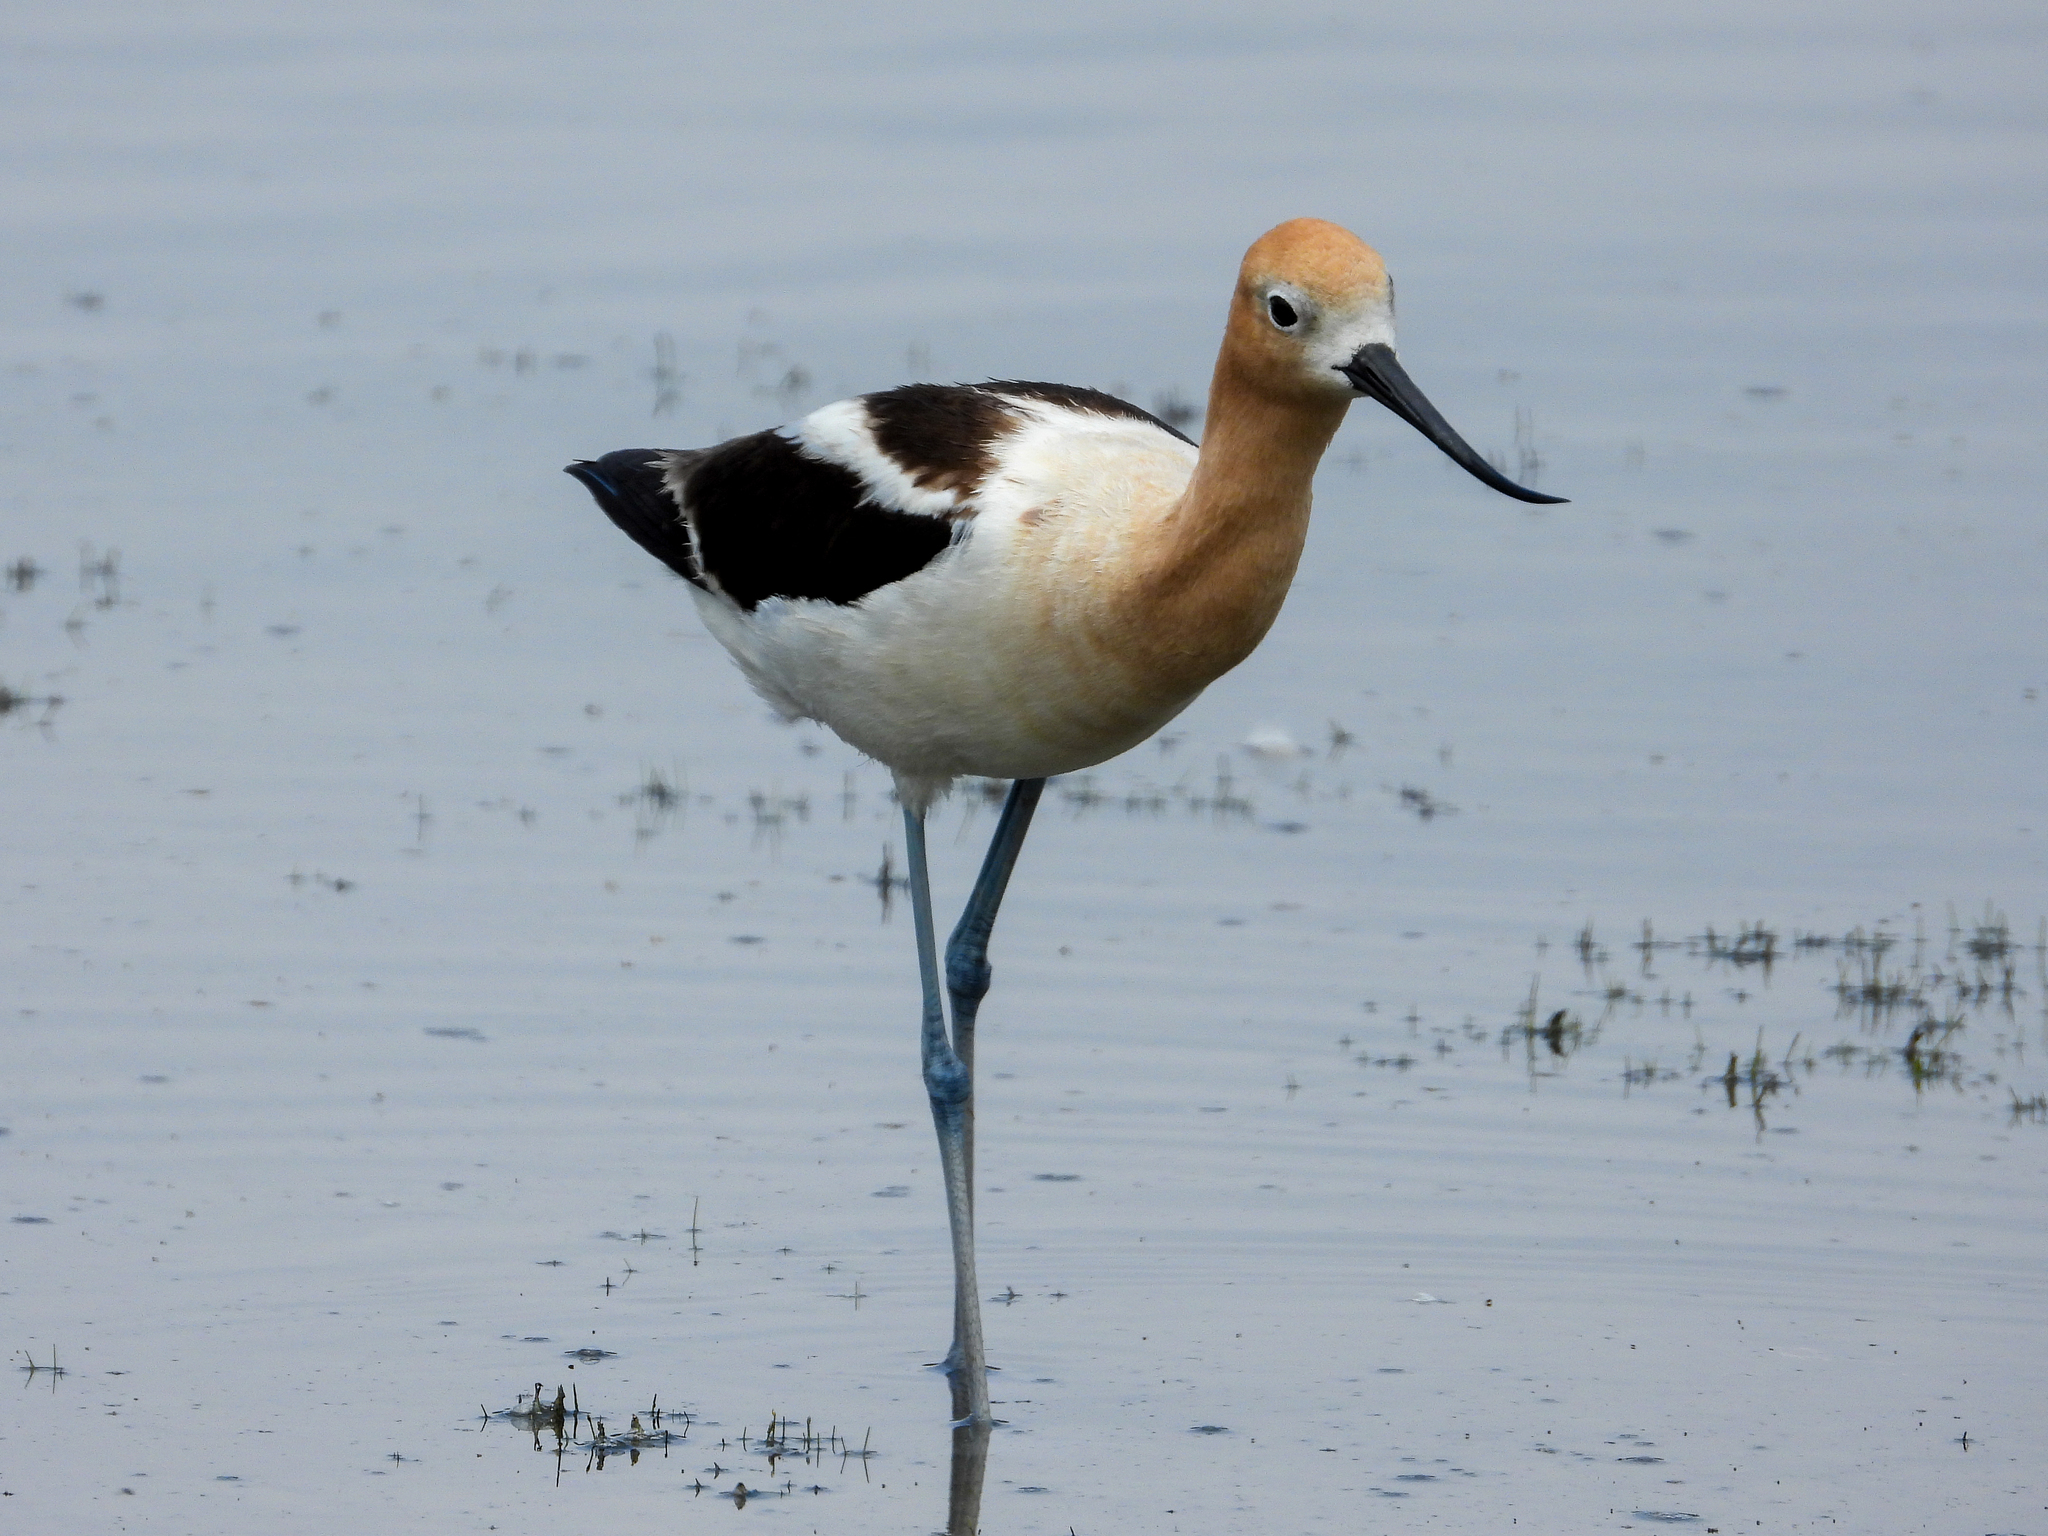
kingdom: Animalia
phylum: Chordata
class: Aves
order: Charadriiformes
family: Recurvirostridae
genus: Recurvirostra
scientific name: Recurvirostra americana
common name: American avocet
